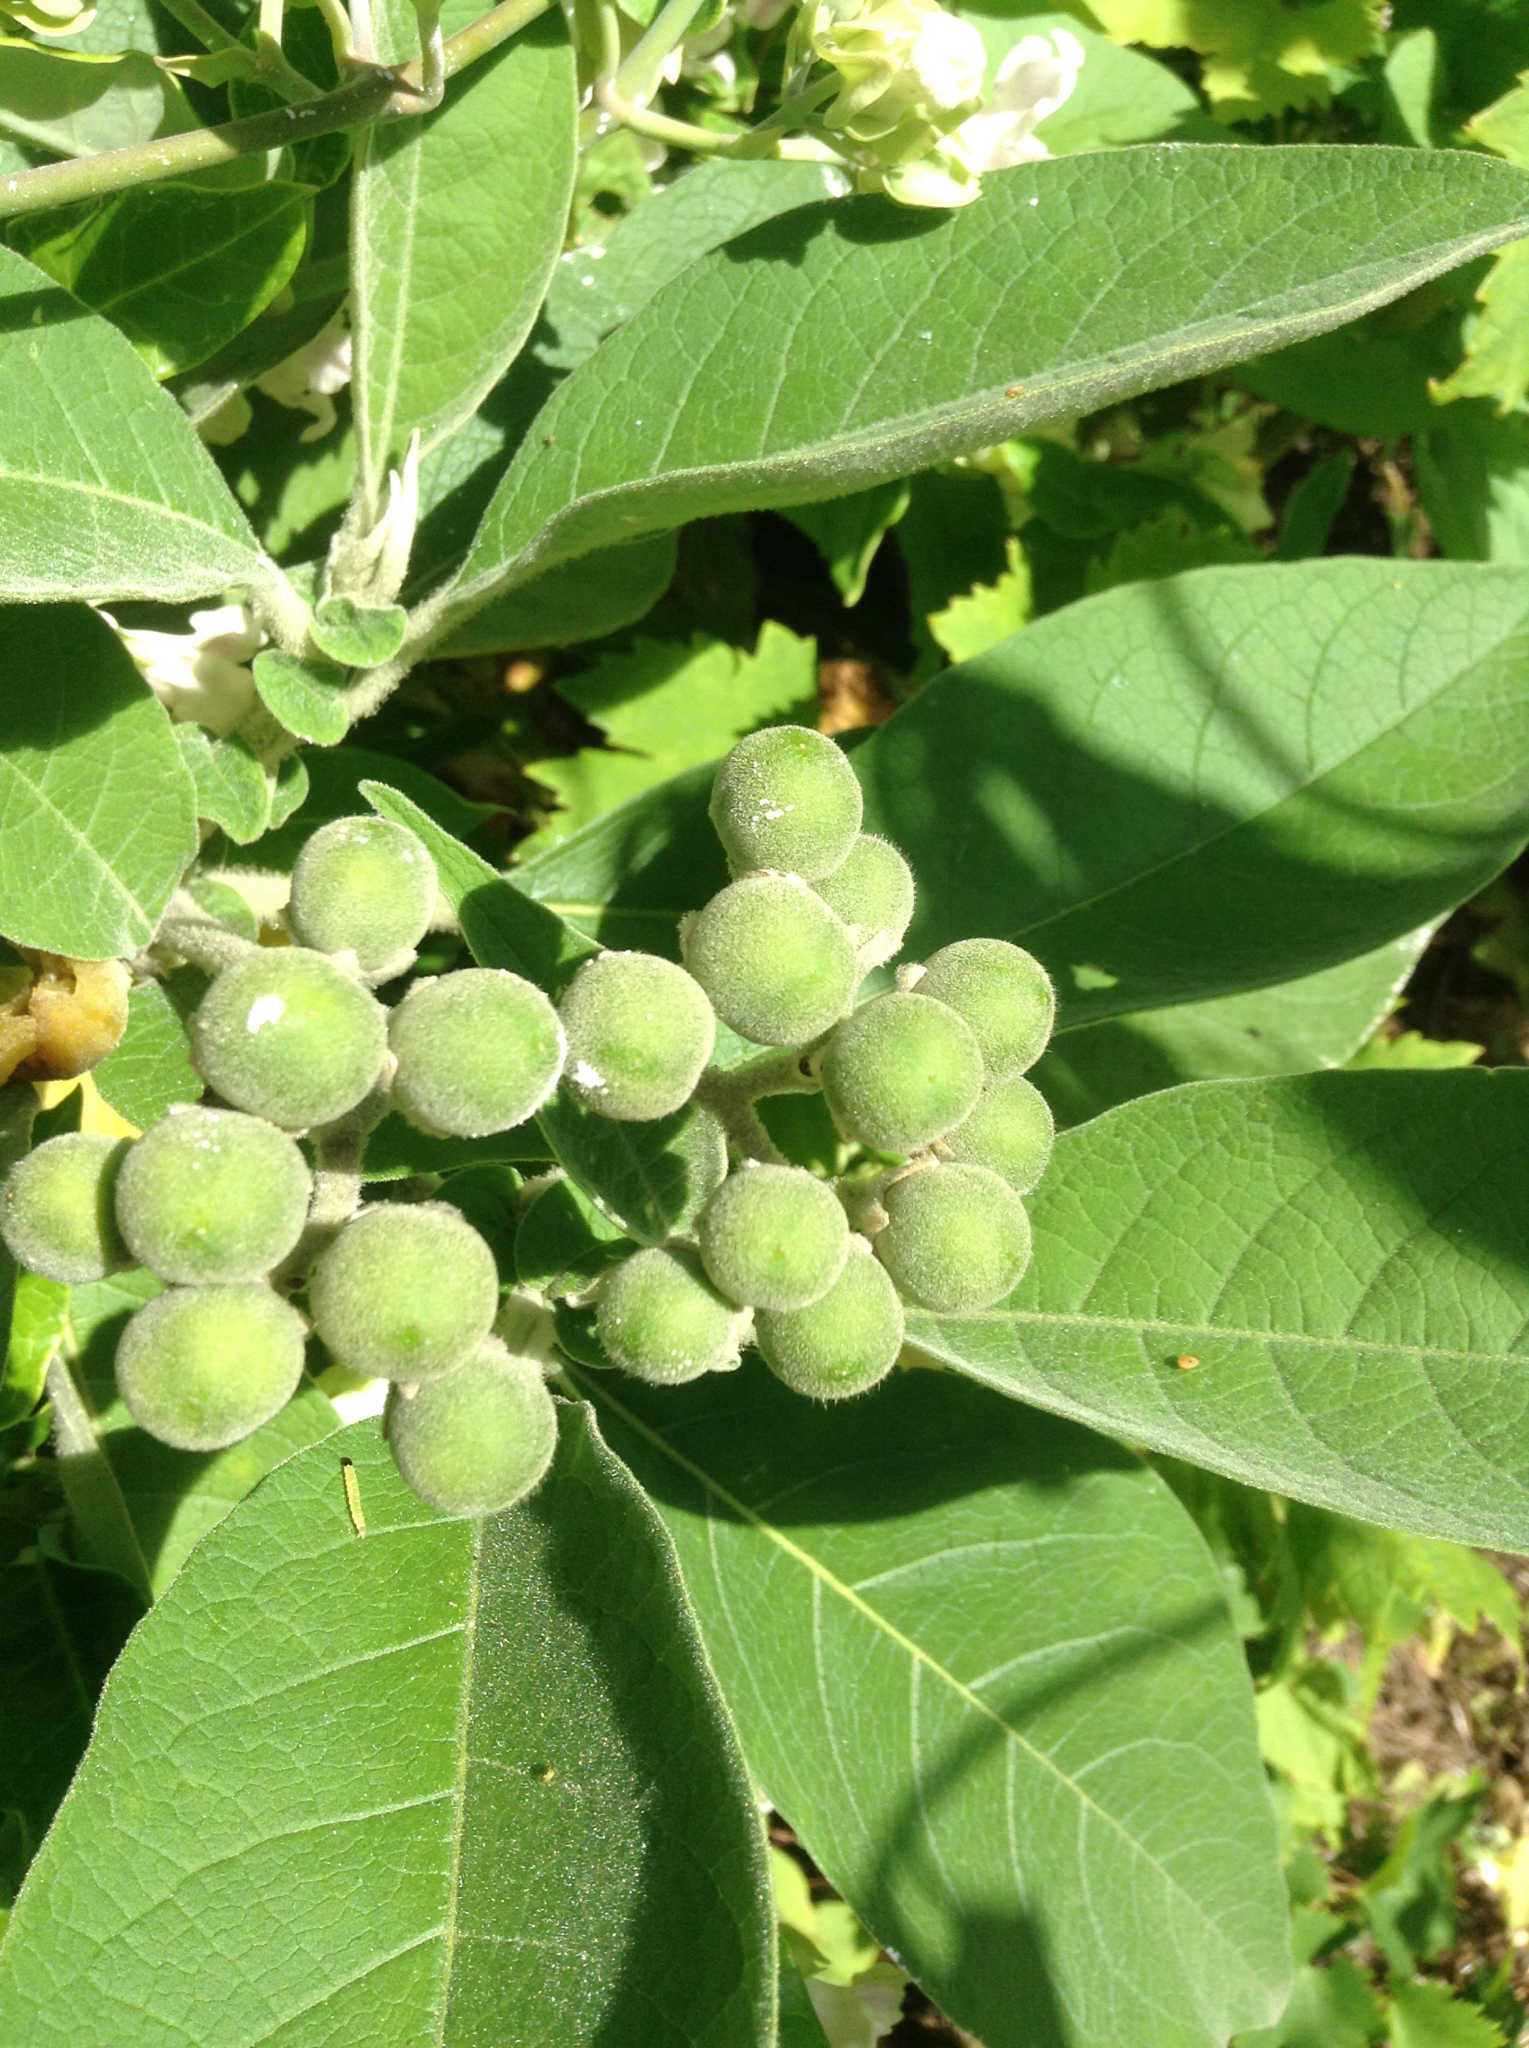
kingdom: Plantae
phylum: Tracheophyta
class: Magnoliopsida
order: Solanales
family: Solanaceae
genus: Solanum
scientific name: Solanum mauritianum
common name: Earleaf nightshade
